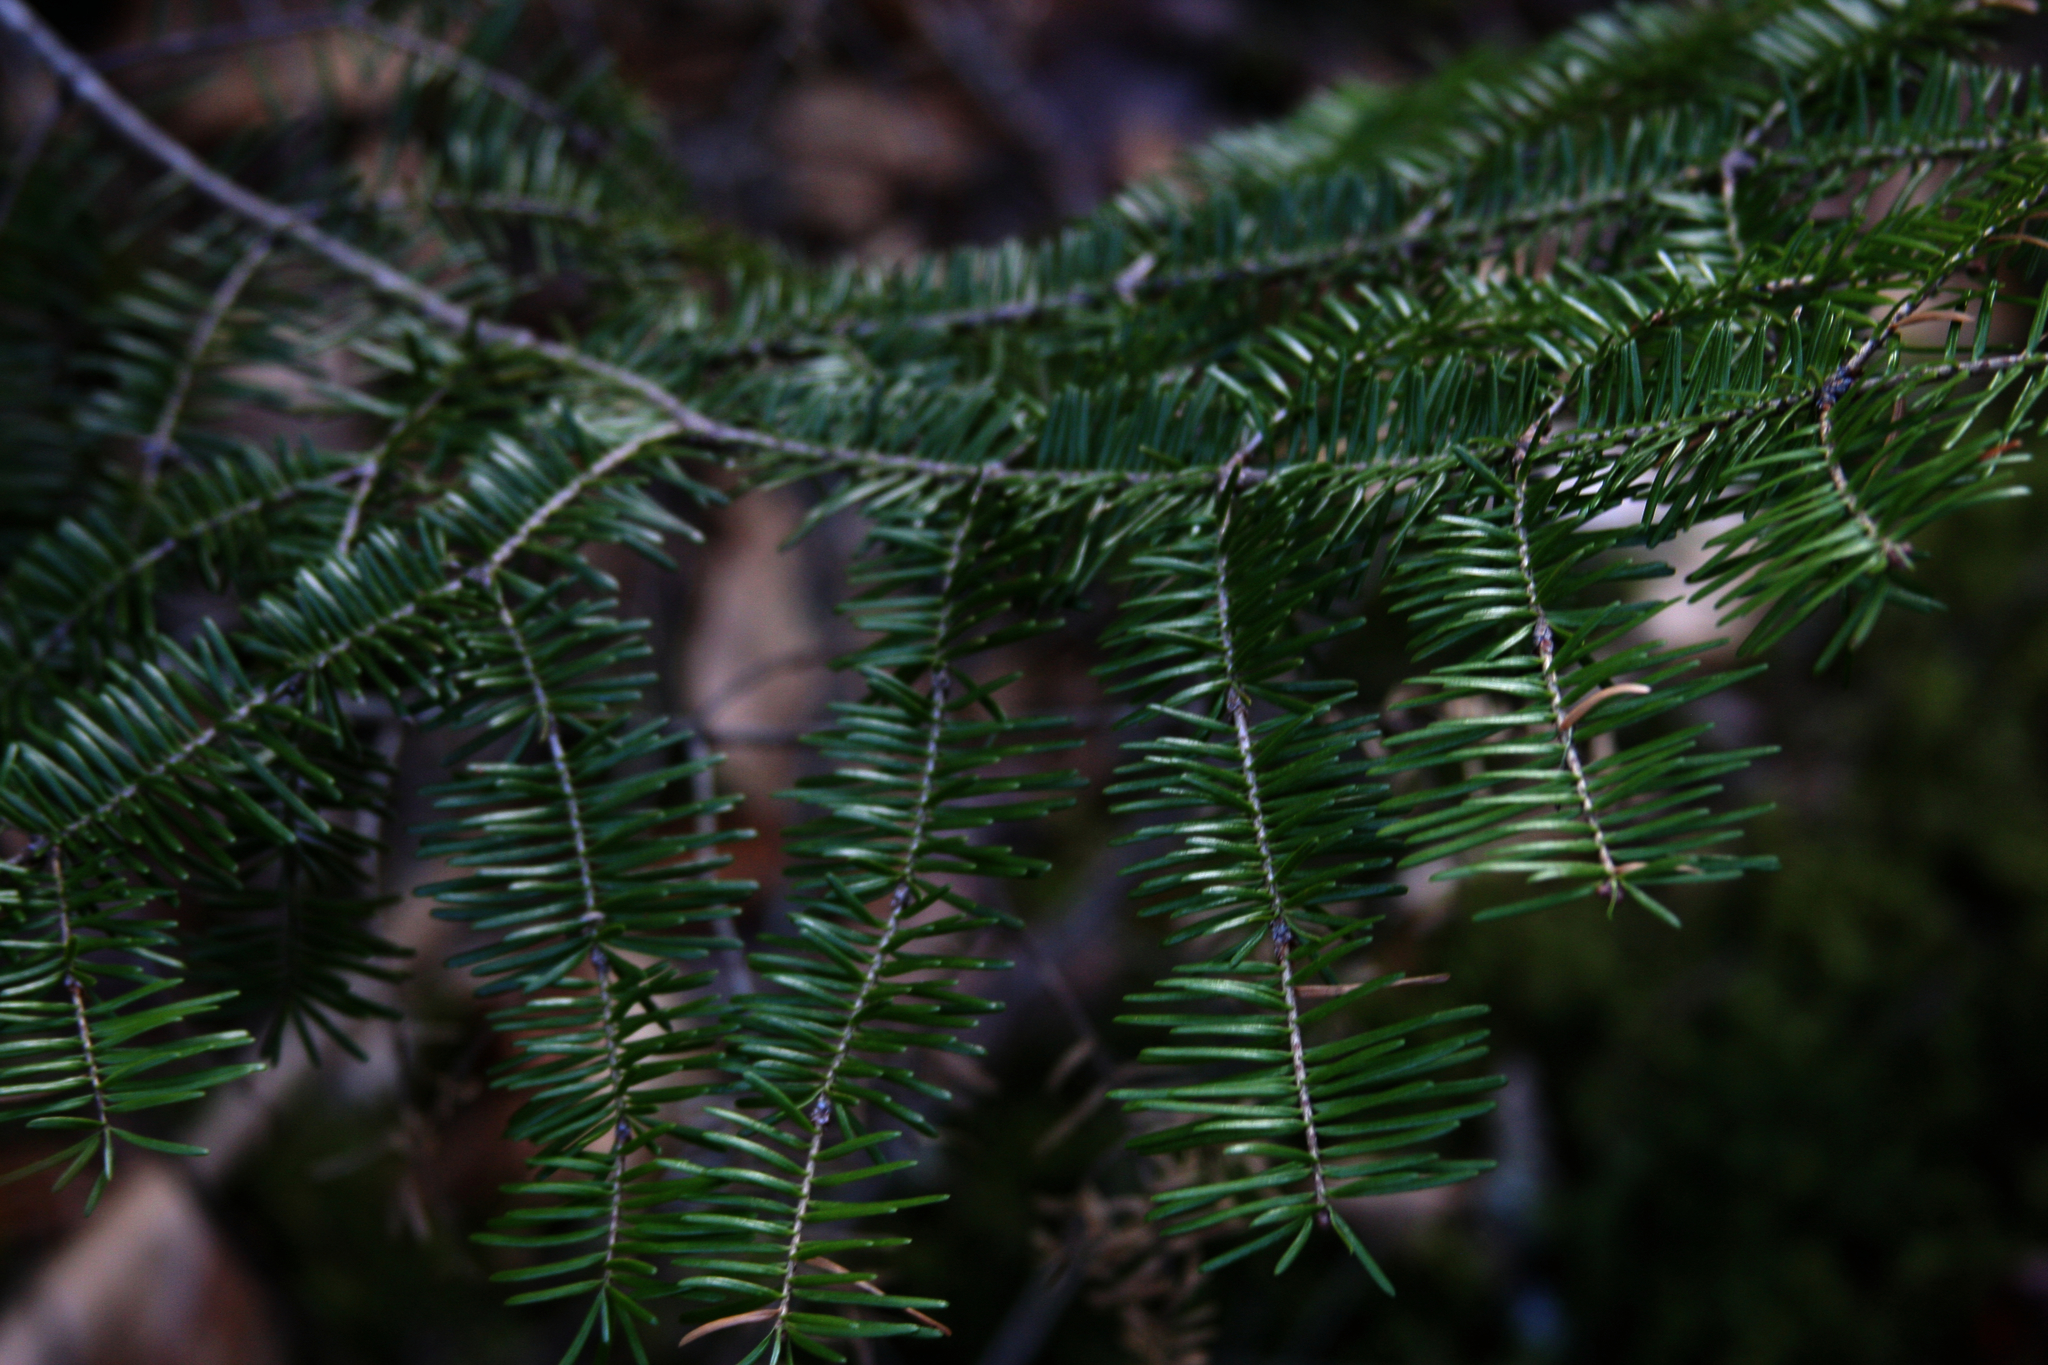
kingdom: Plantae
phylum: Tracheophyta
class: Pinopsida
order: Pinales
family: Pinaceae
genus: Abies
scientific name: Abies balsamea
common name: Balsam fir
